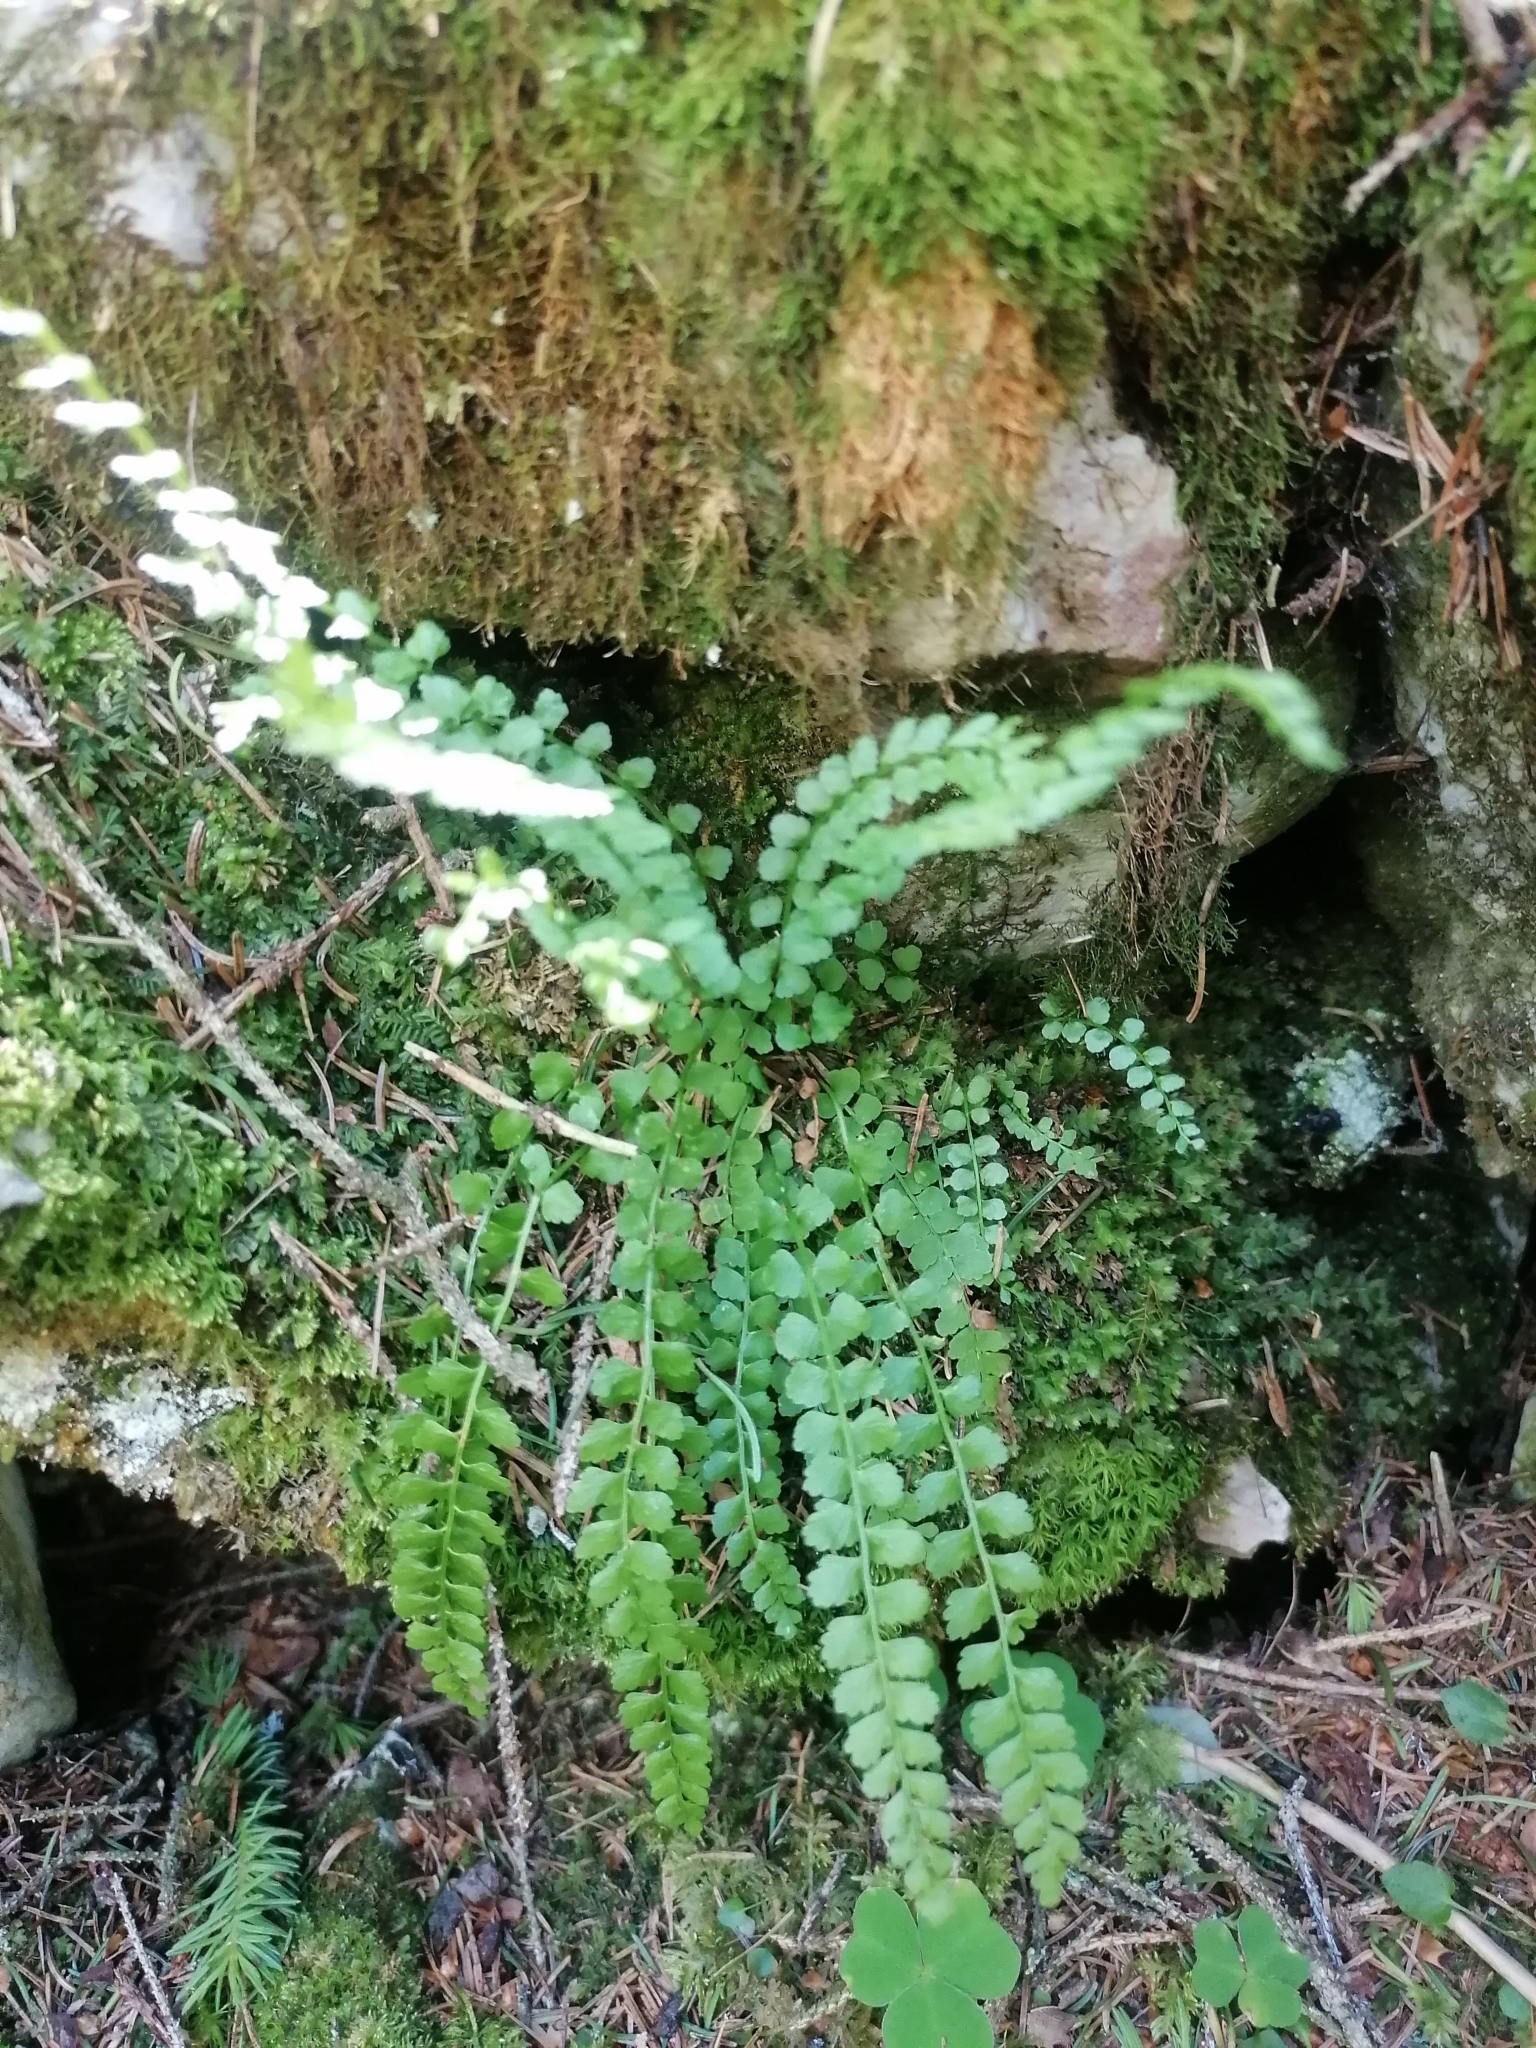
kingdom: Plantae
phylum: Tracheophyta
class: Polypodiopsida
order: Polypodiales
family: Aspleniaceae
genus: Asplenium
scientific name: Asplenium viride
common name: Green spleenwort
